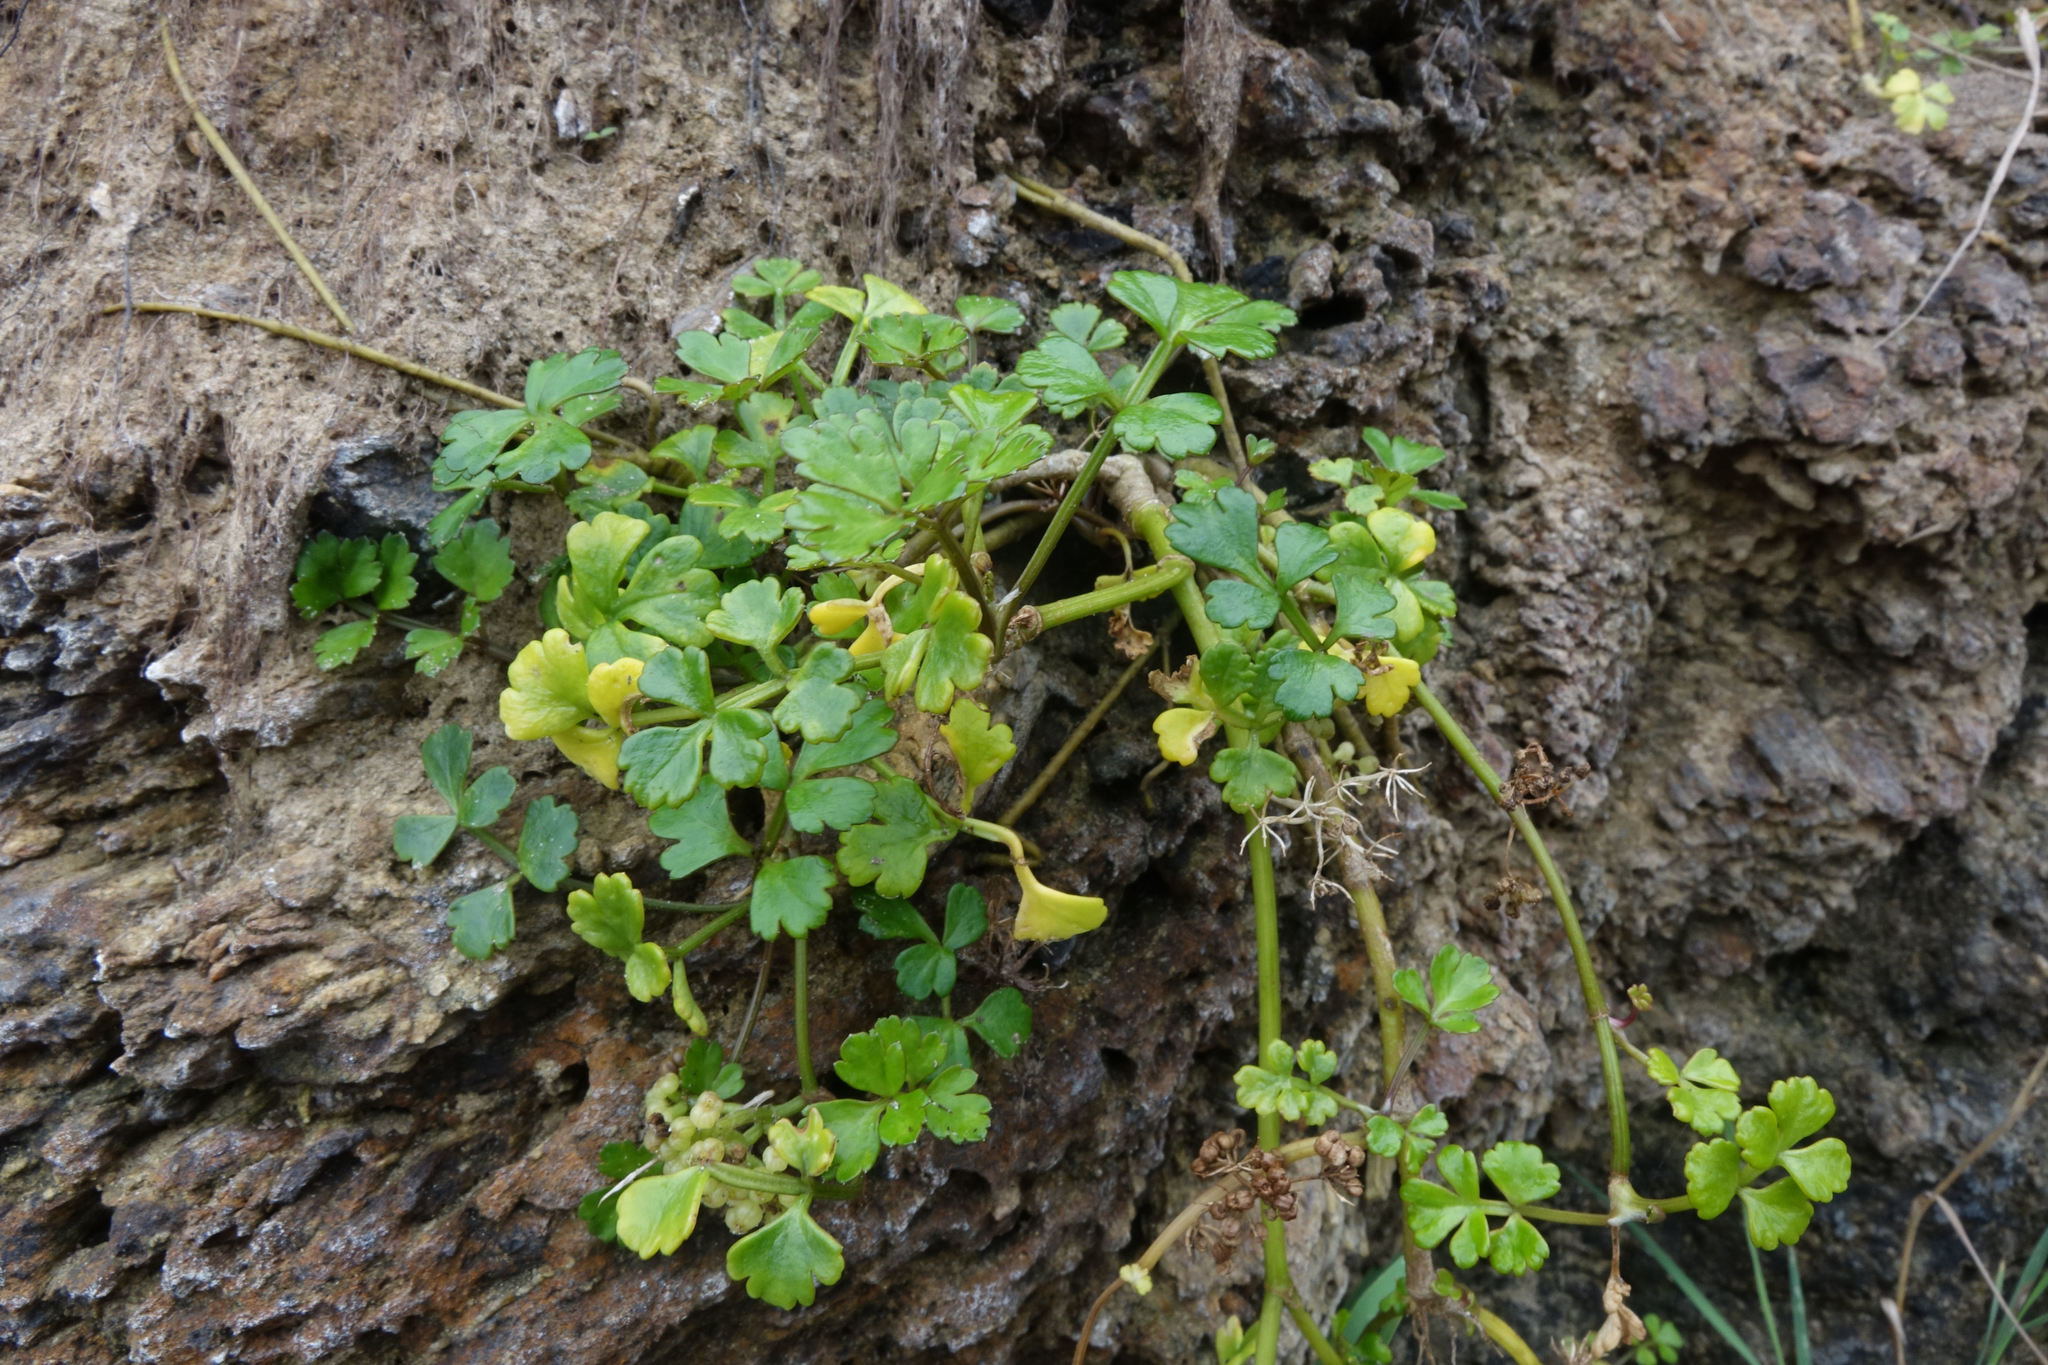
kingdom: Plantae
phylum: Tracheophyta
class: Magnoliopsida
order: Apiales
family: Apiaceae
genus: Apium
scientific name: Apium prostratum
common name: Prostrate marshwort
